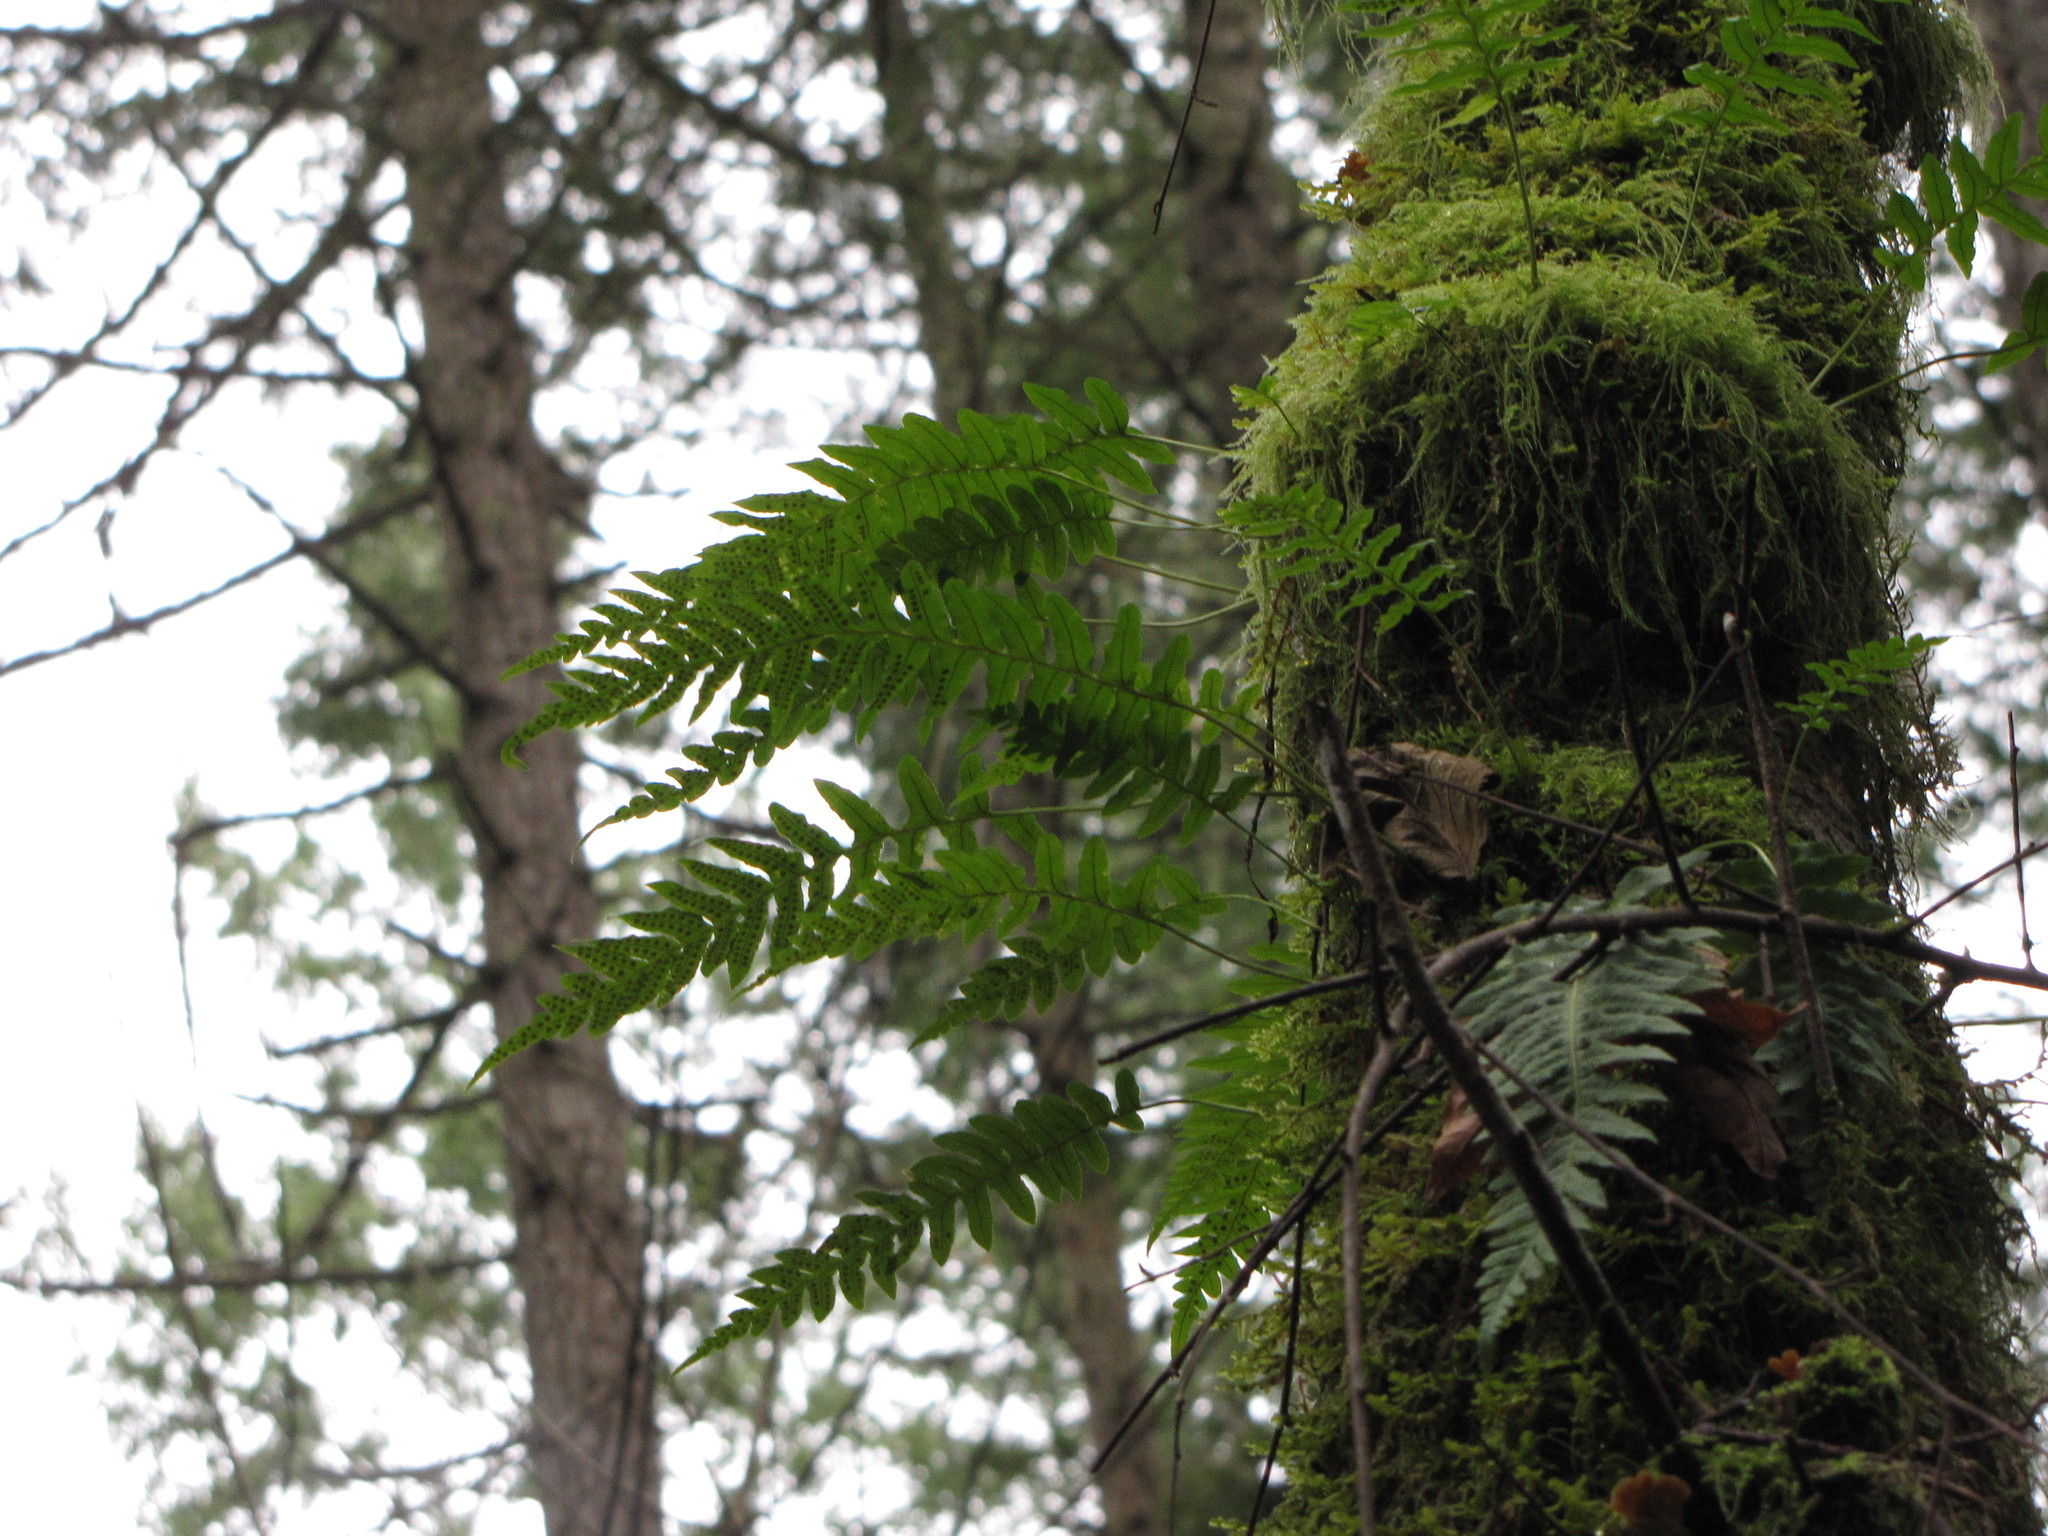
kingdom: Plantae
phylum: Tracheophyta
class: Polypodiopsida
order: Polypodiales
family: Polypodiaceae
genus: Polypodium
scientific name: Polypodium glycyrrhiza
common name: Licorice fern
